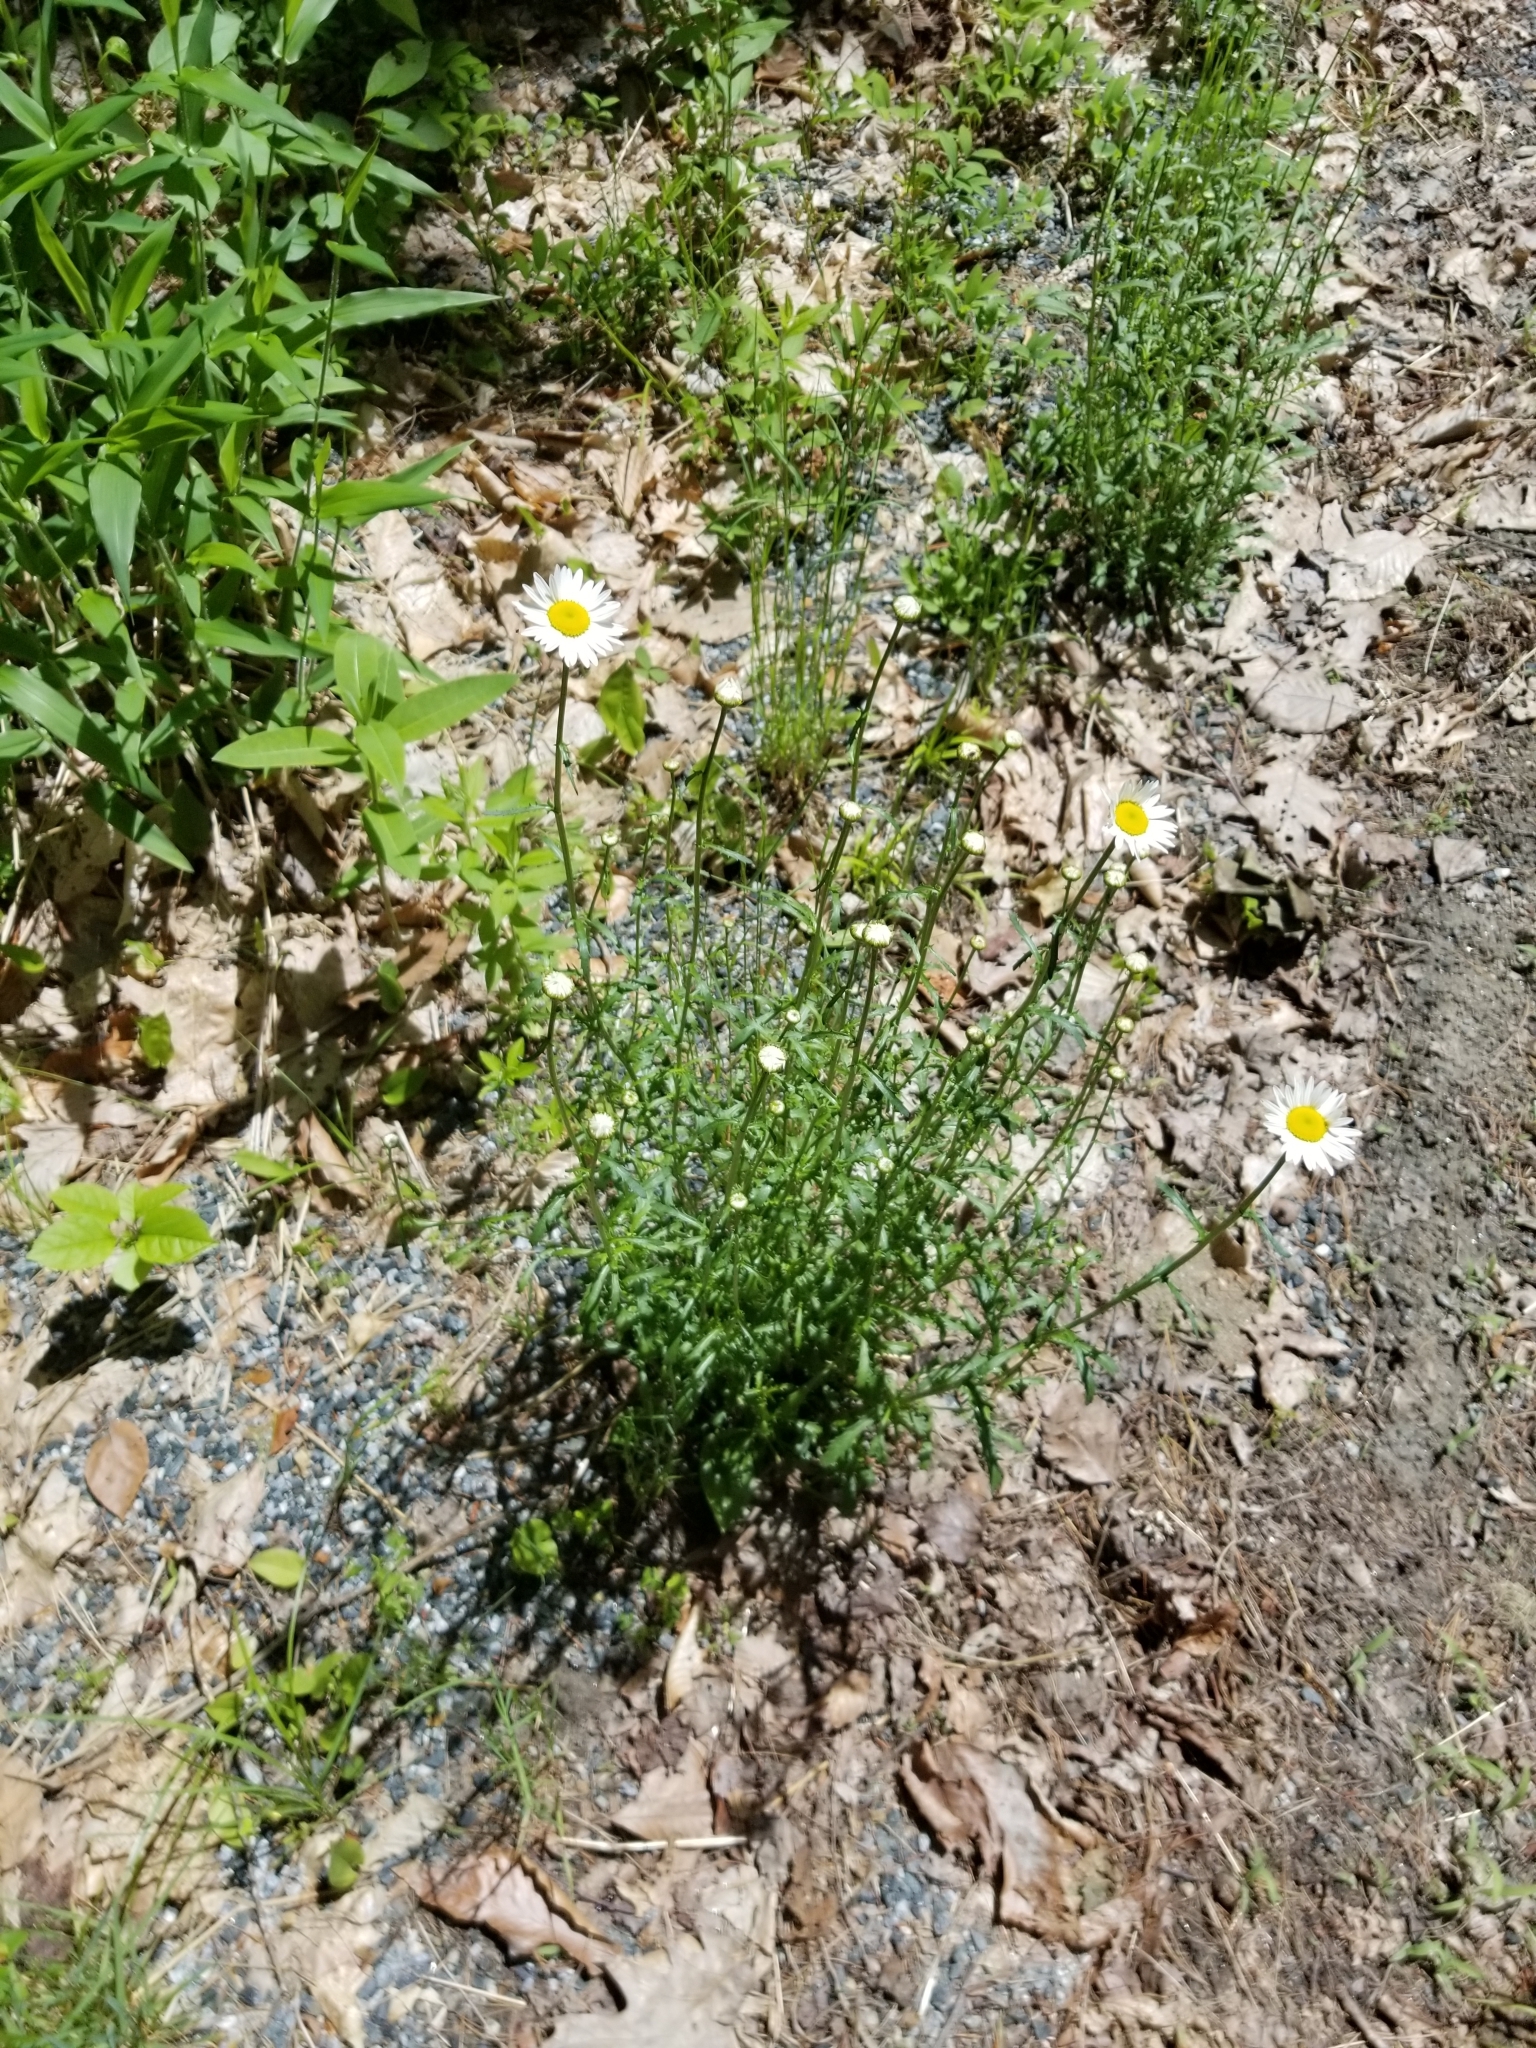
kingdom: Plantae
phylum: Tracheophyta
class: Magnoliopsida
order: Asterales
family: Asteraceae
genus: Leucanthemum
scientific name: Leucanthemum vulgare
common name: Oxeye daisy
